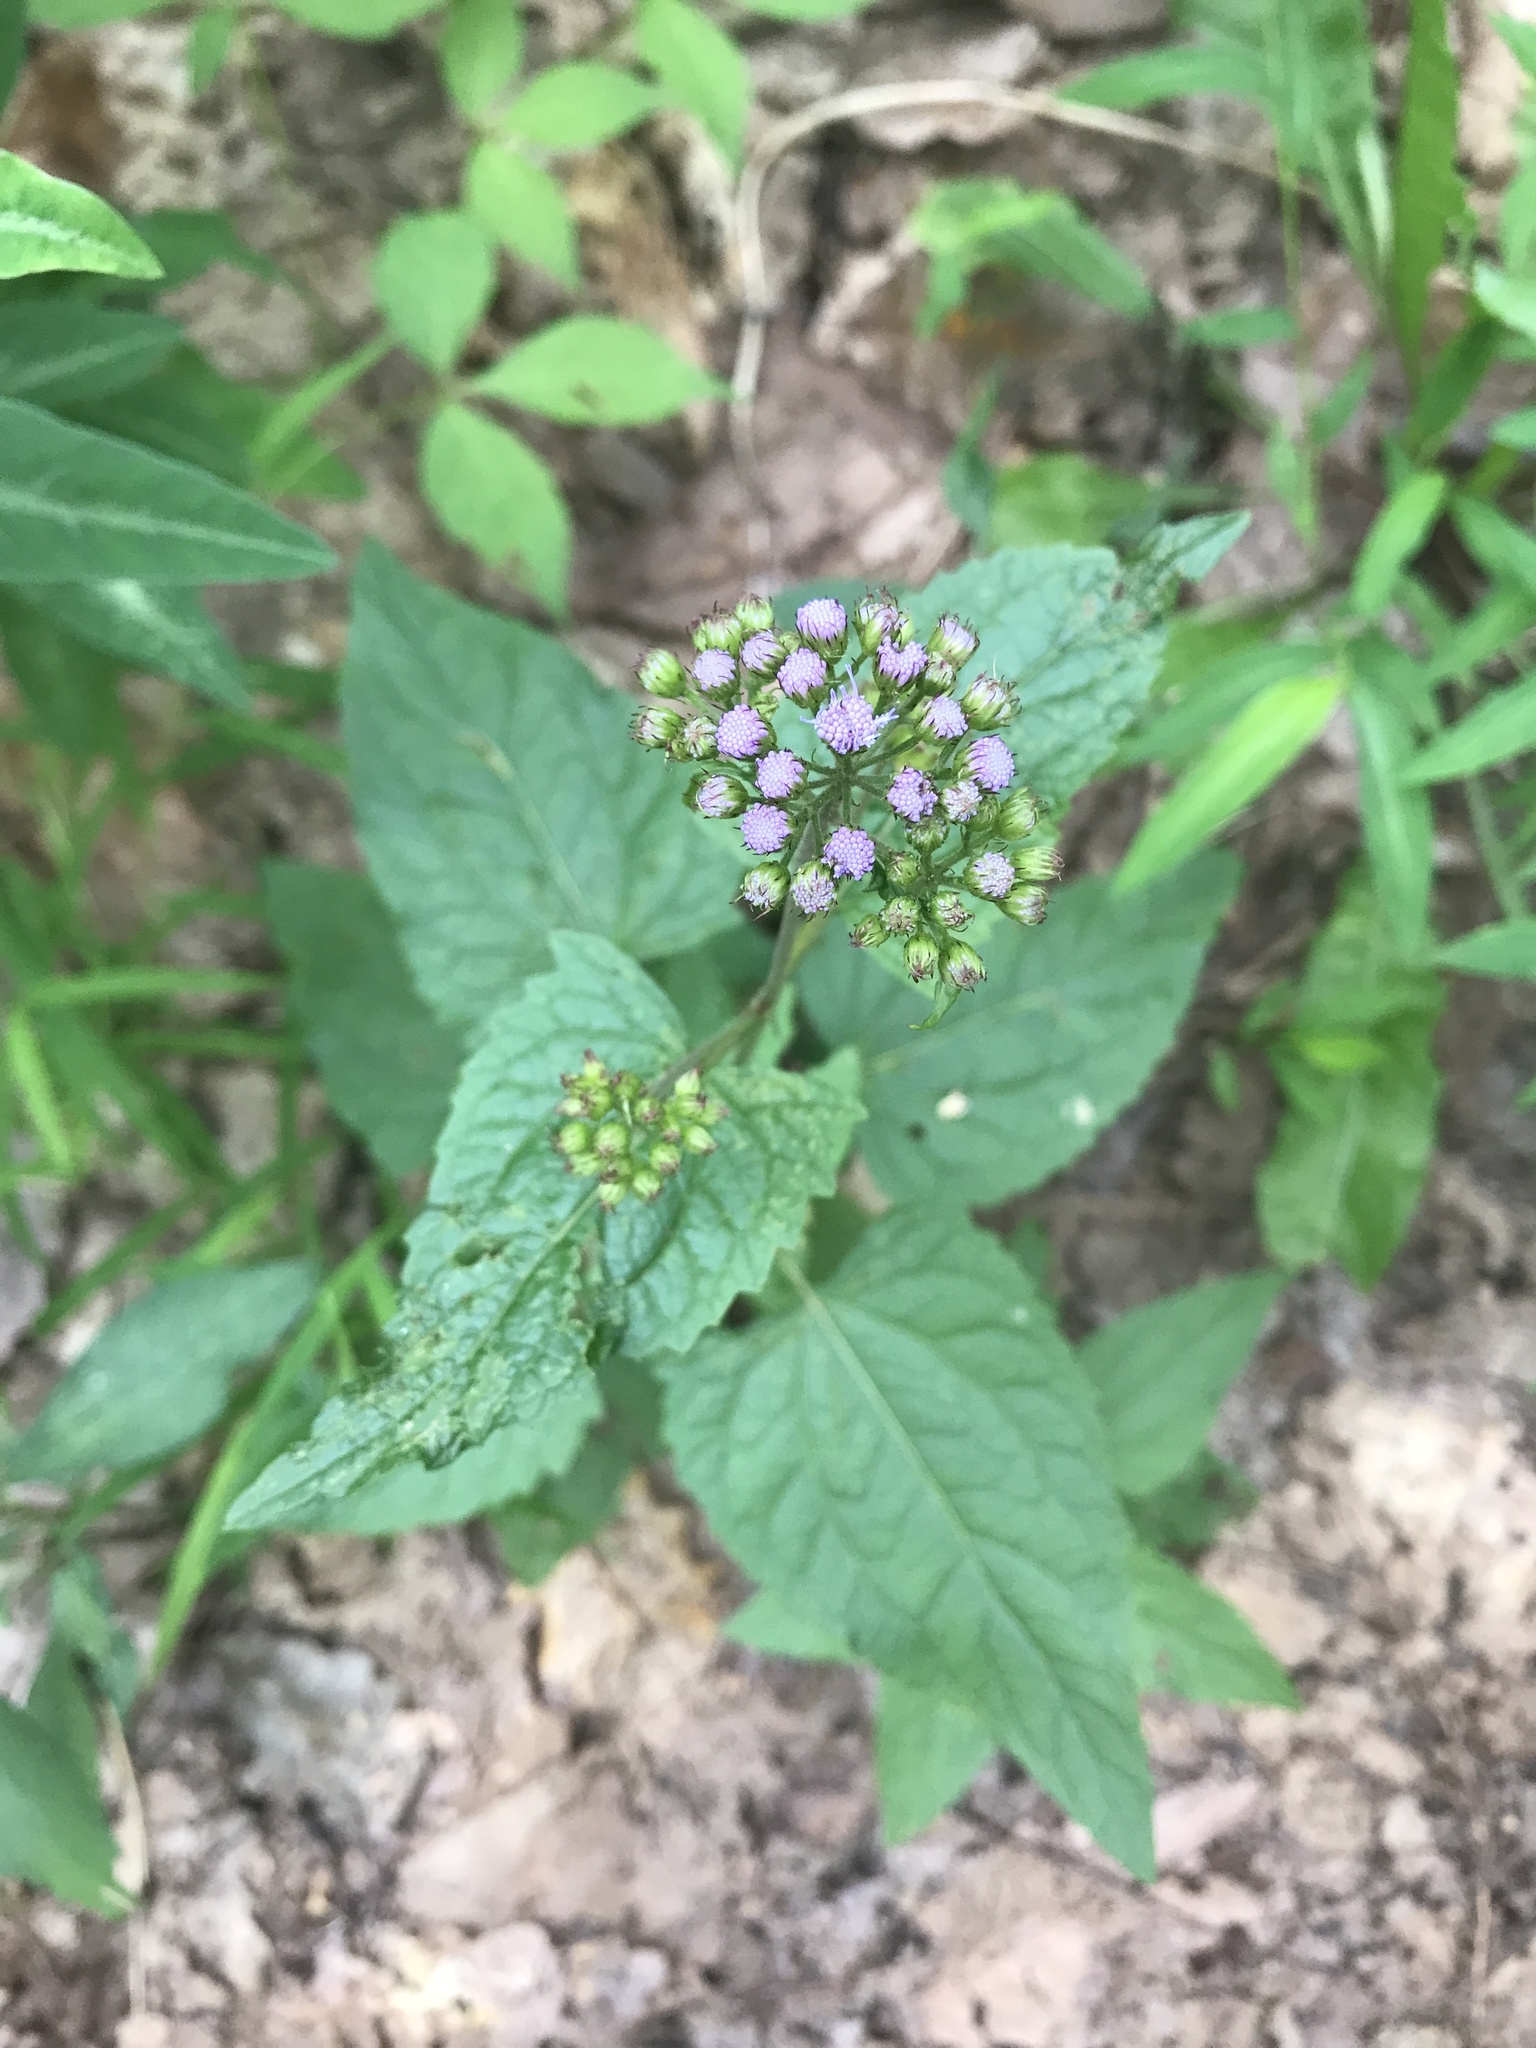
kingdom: Plantae
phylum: Tracheophyta
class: Magnoliopsida
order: Asterales
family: Asteraceae
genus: Conoclinium
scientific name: Conoclinium coelestinum
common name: Blue mistflower
